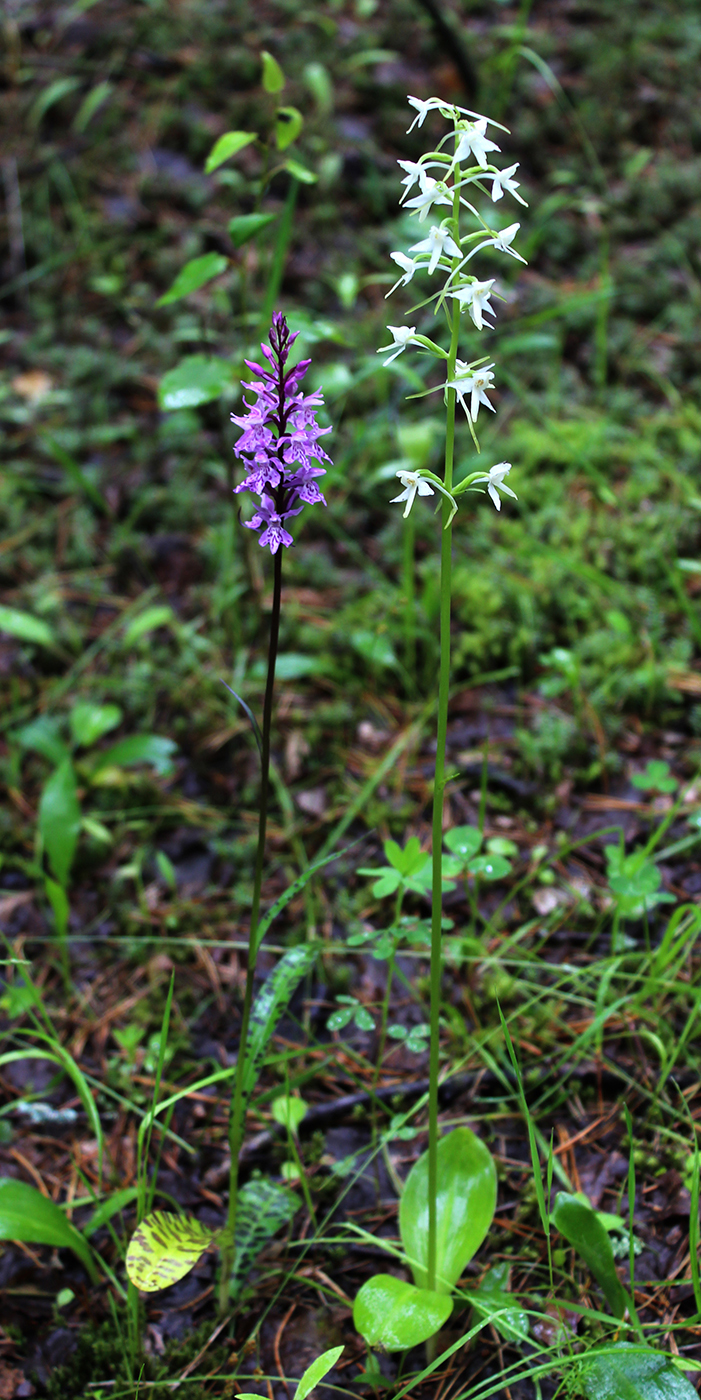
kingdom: Plantae
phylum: Tracheophyta
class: Liliopsida
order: Asparagales
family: Orchidaceae
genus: Platanthera
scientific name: Platanthera bifolia
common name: Lesser butterfly-orchid
